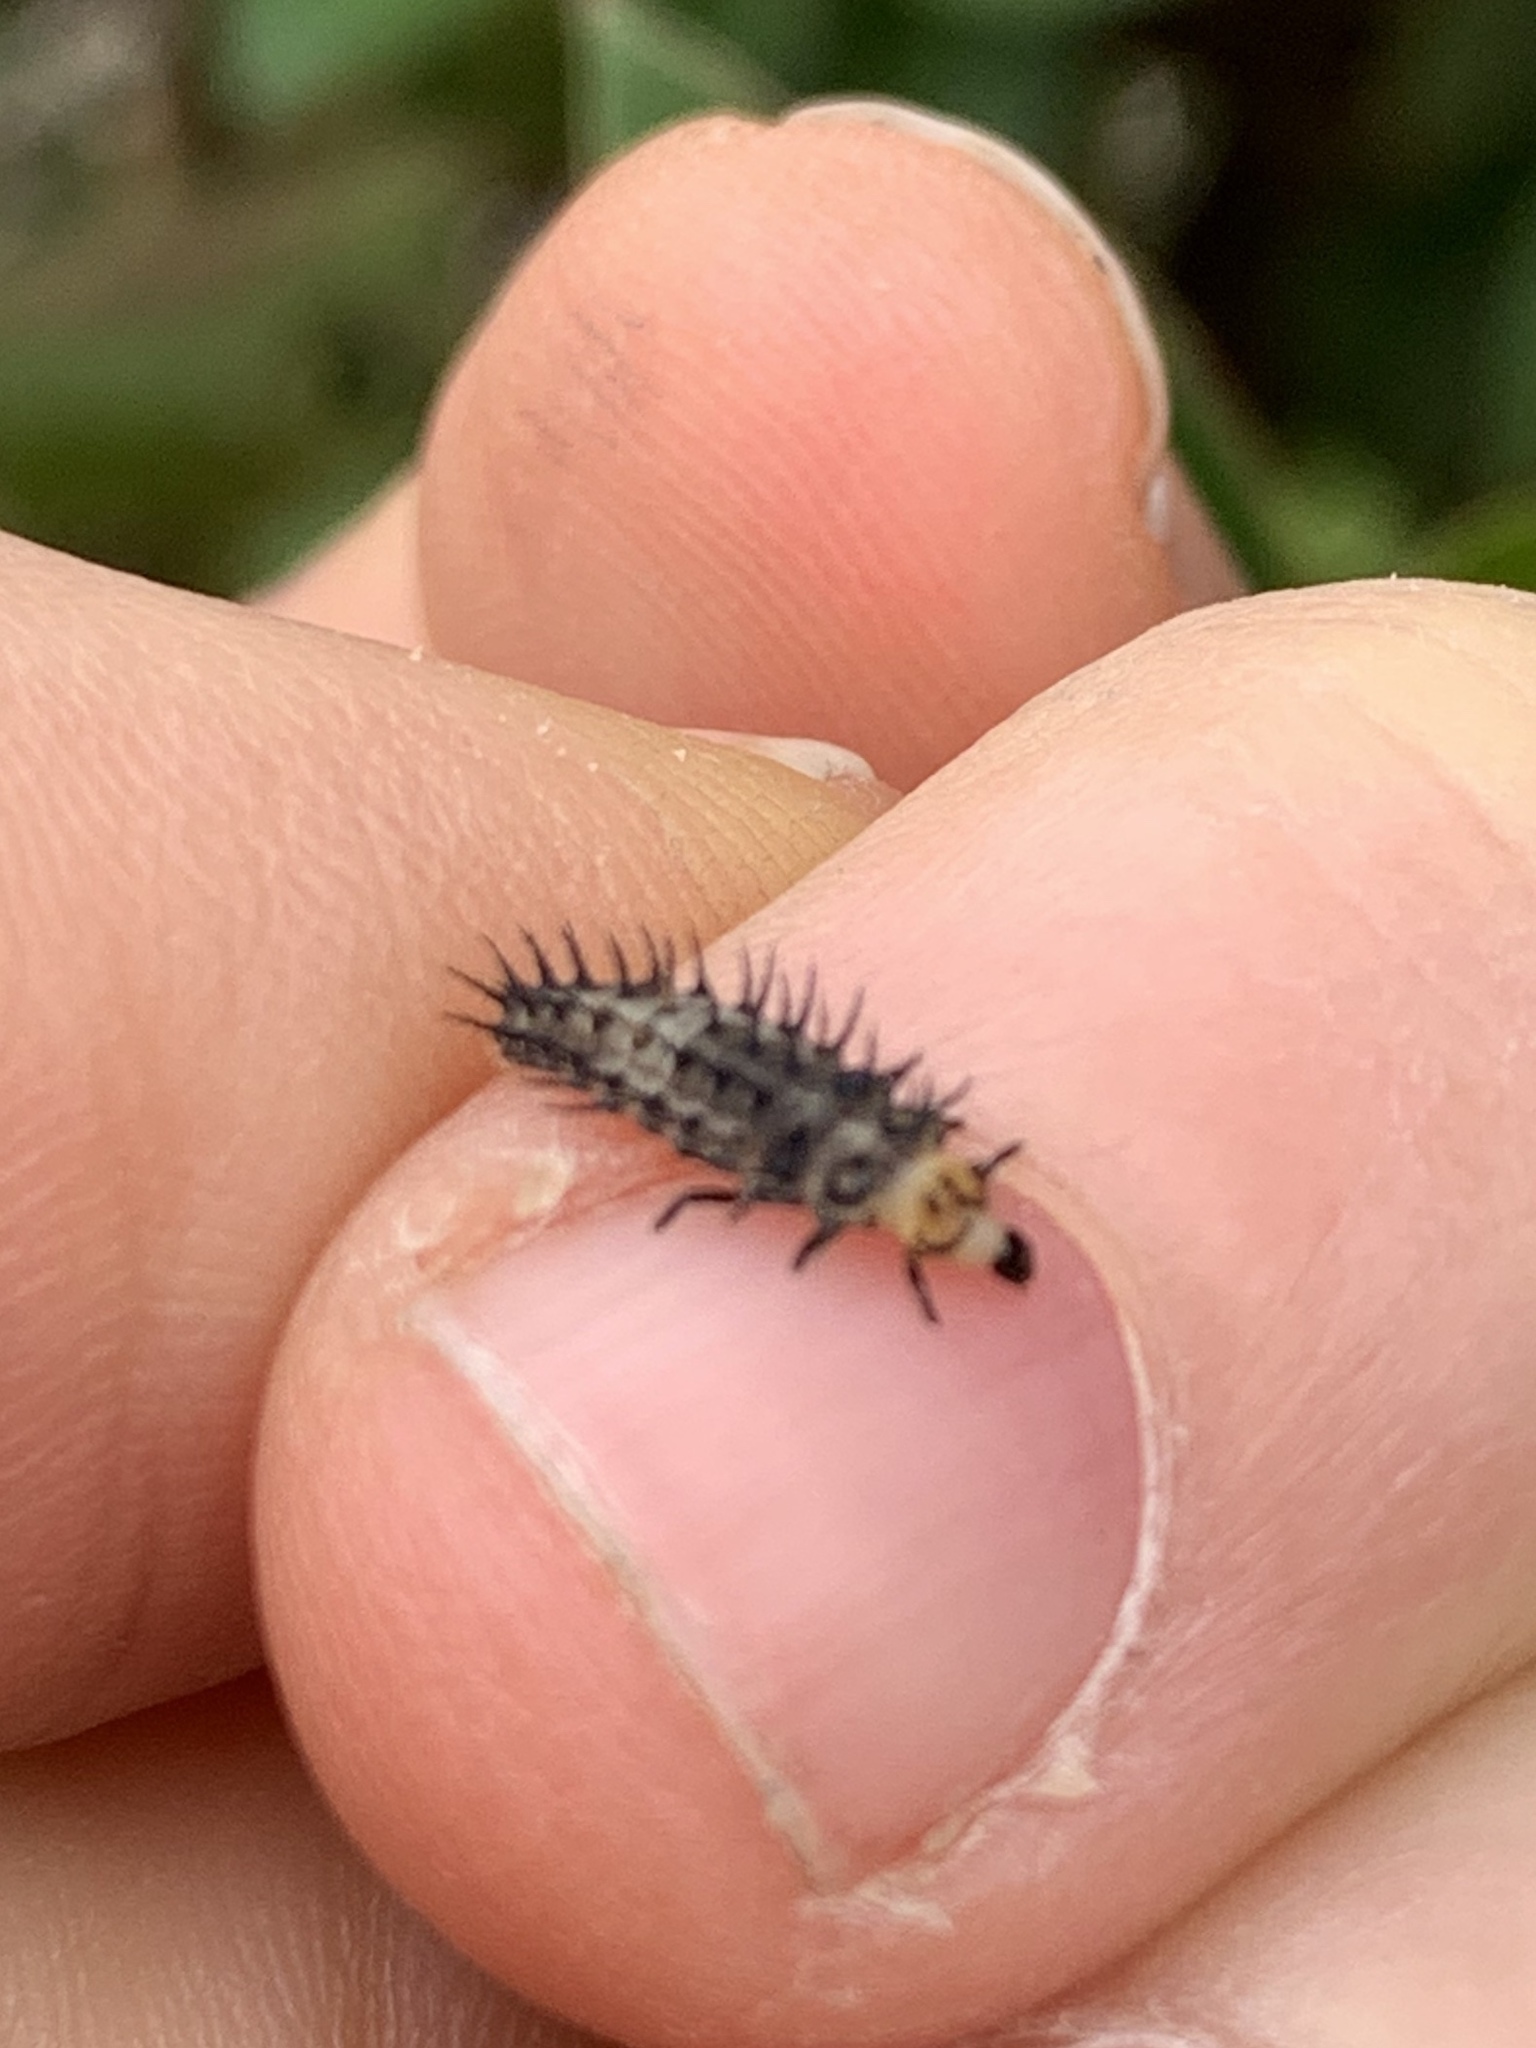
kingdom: Animalia
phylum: Arthropoda
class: Insecta
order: Coleoptera
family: Coccinellidae
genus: Curinus
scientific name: Curinus coeruleus
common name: Ladybird beetle
